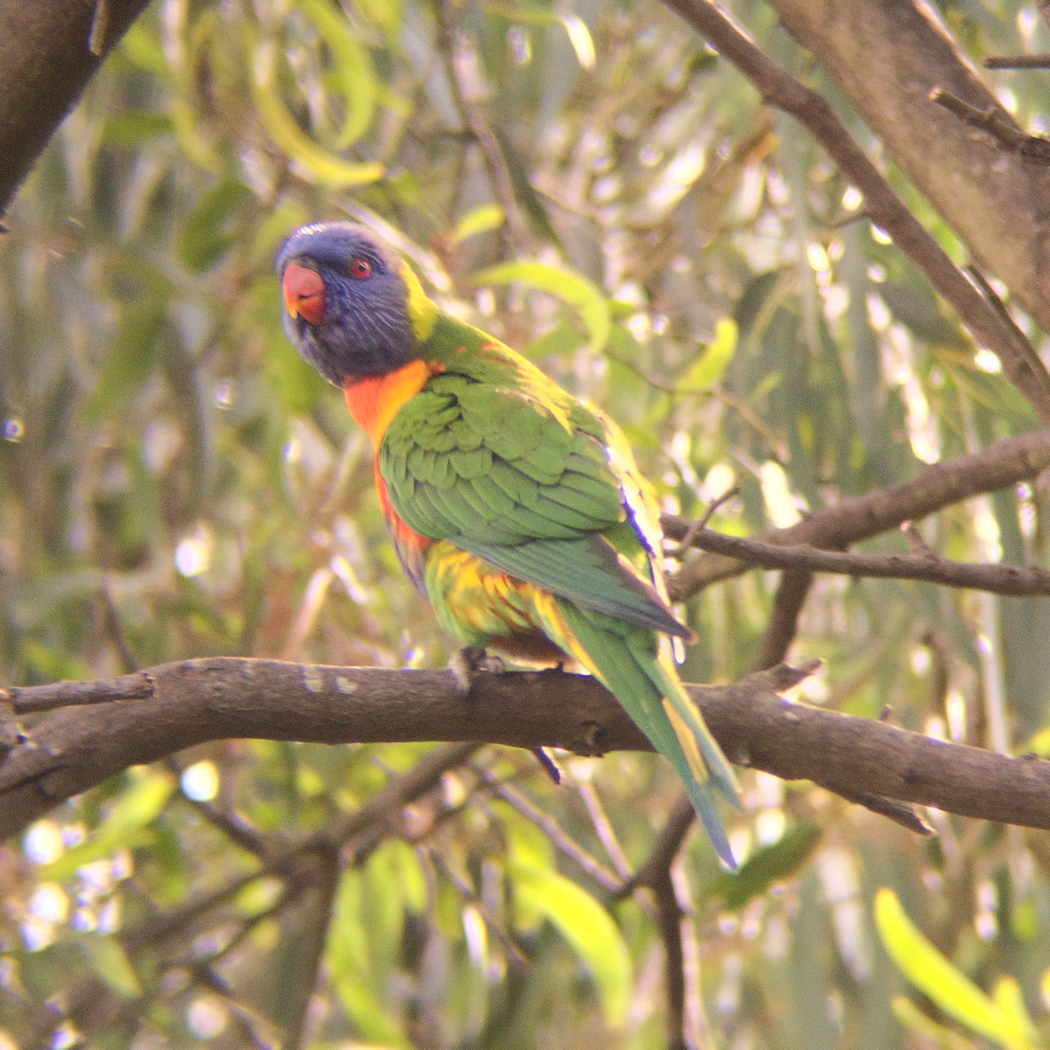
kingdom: Animalia
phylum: Chordata
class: Aves
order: Psittaciformes
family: Psittacidae
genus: Trichoglossus
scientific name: Trichoglossus haematodus
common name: Coconut lorikeet
